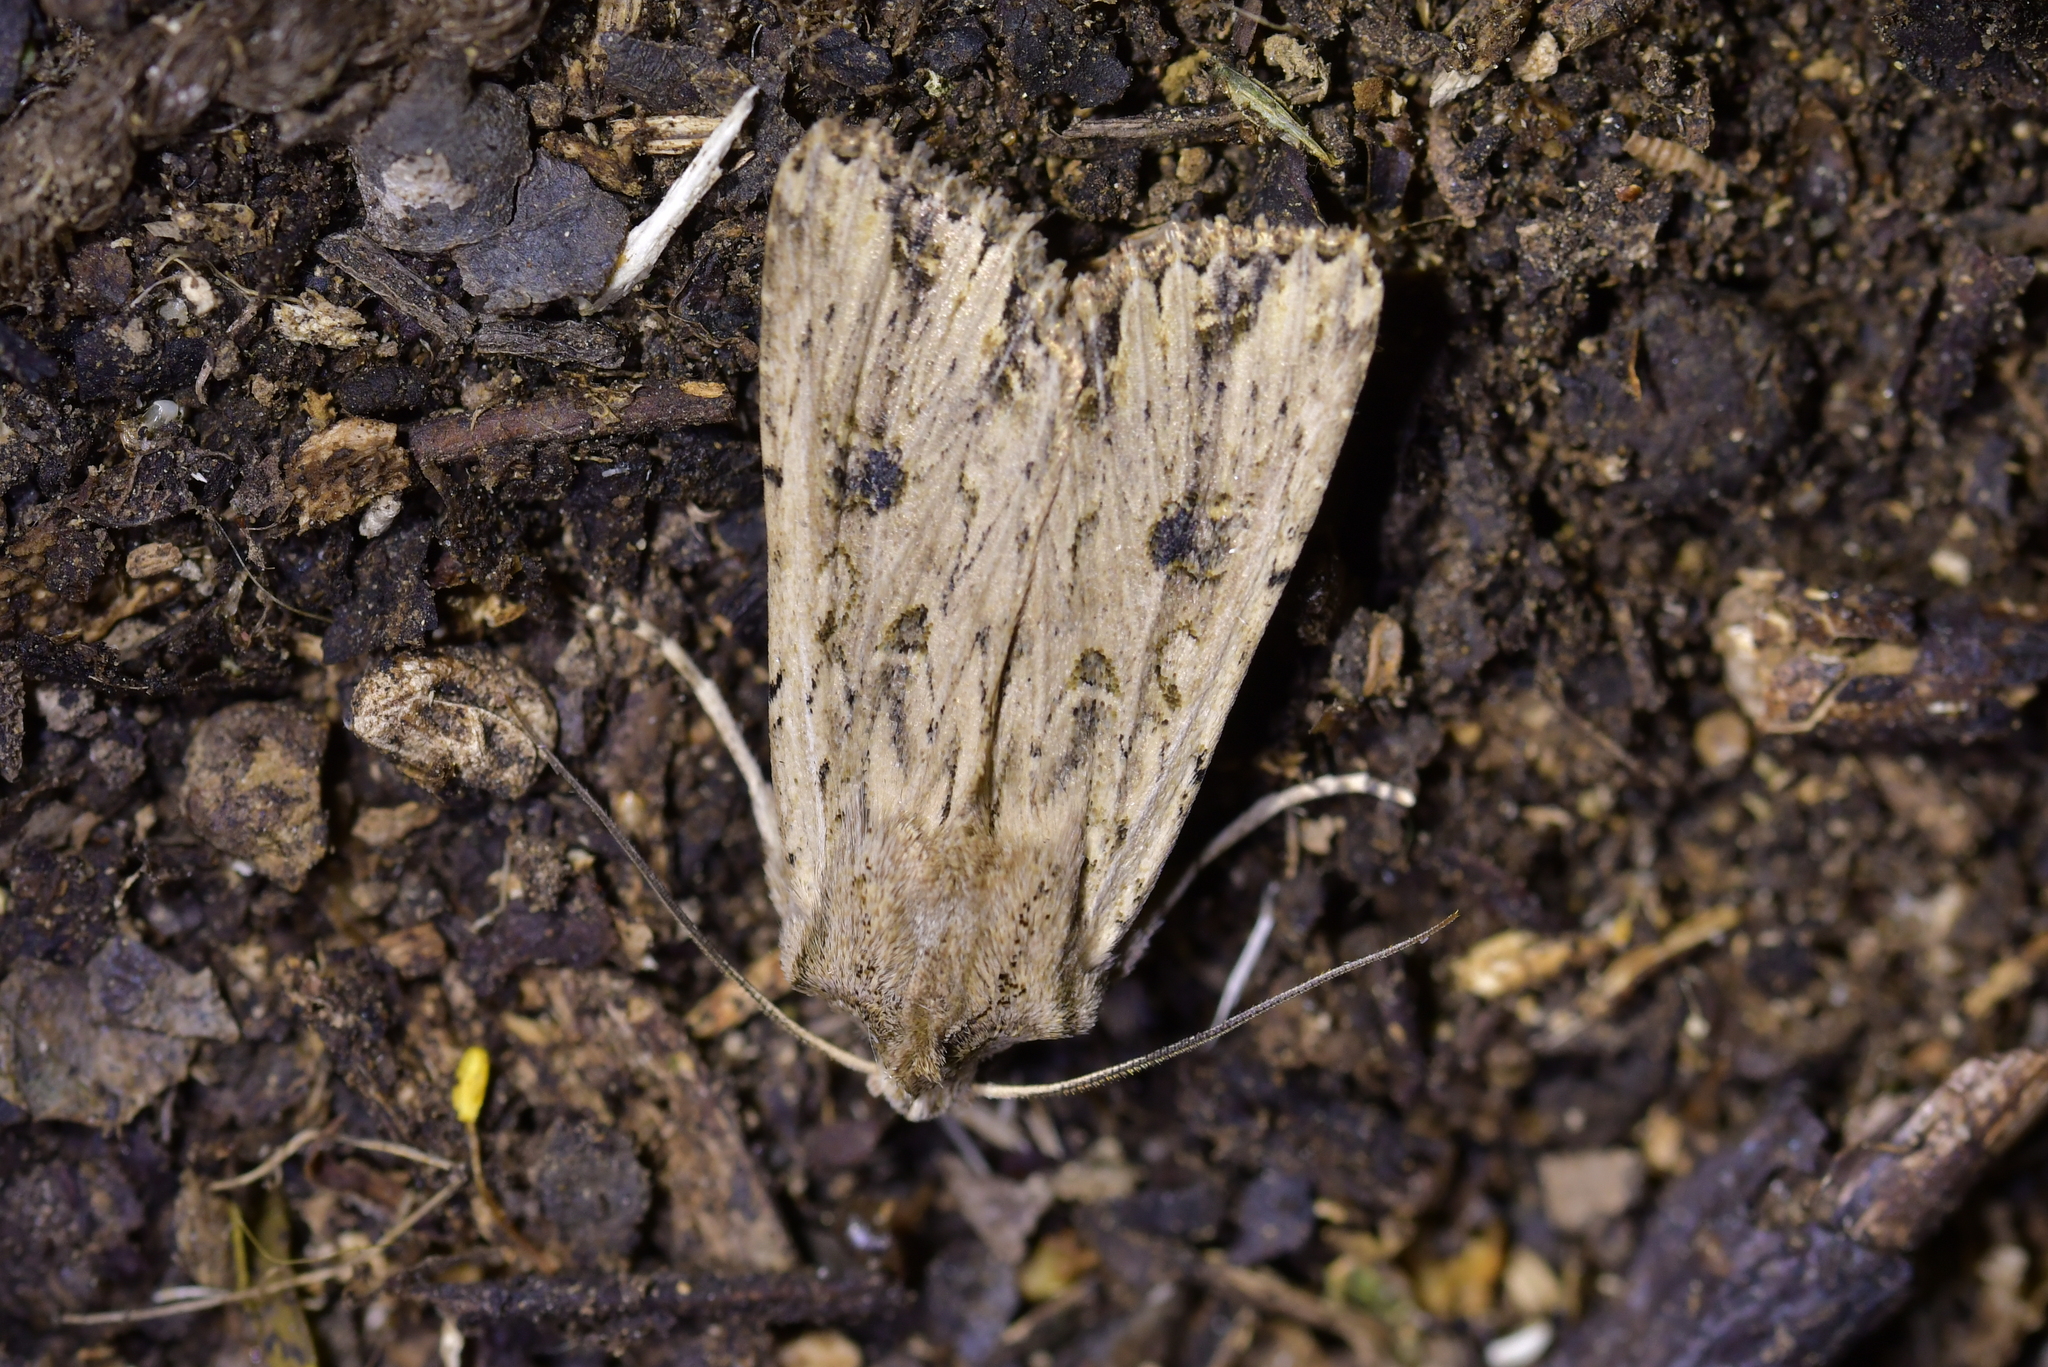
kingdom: Animalia
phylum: Arthropoda
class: Insecta
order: Lepidoptera
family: Noctuidae
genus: Ichneutica
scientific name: Ichneutica lignana
